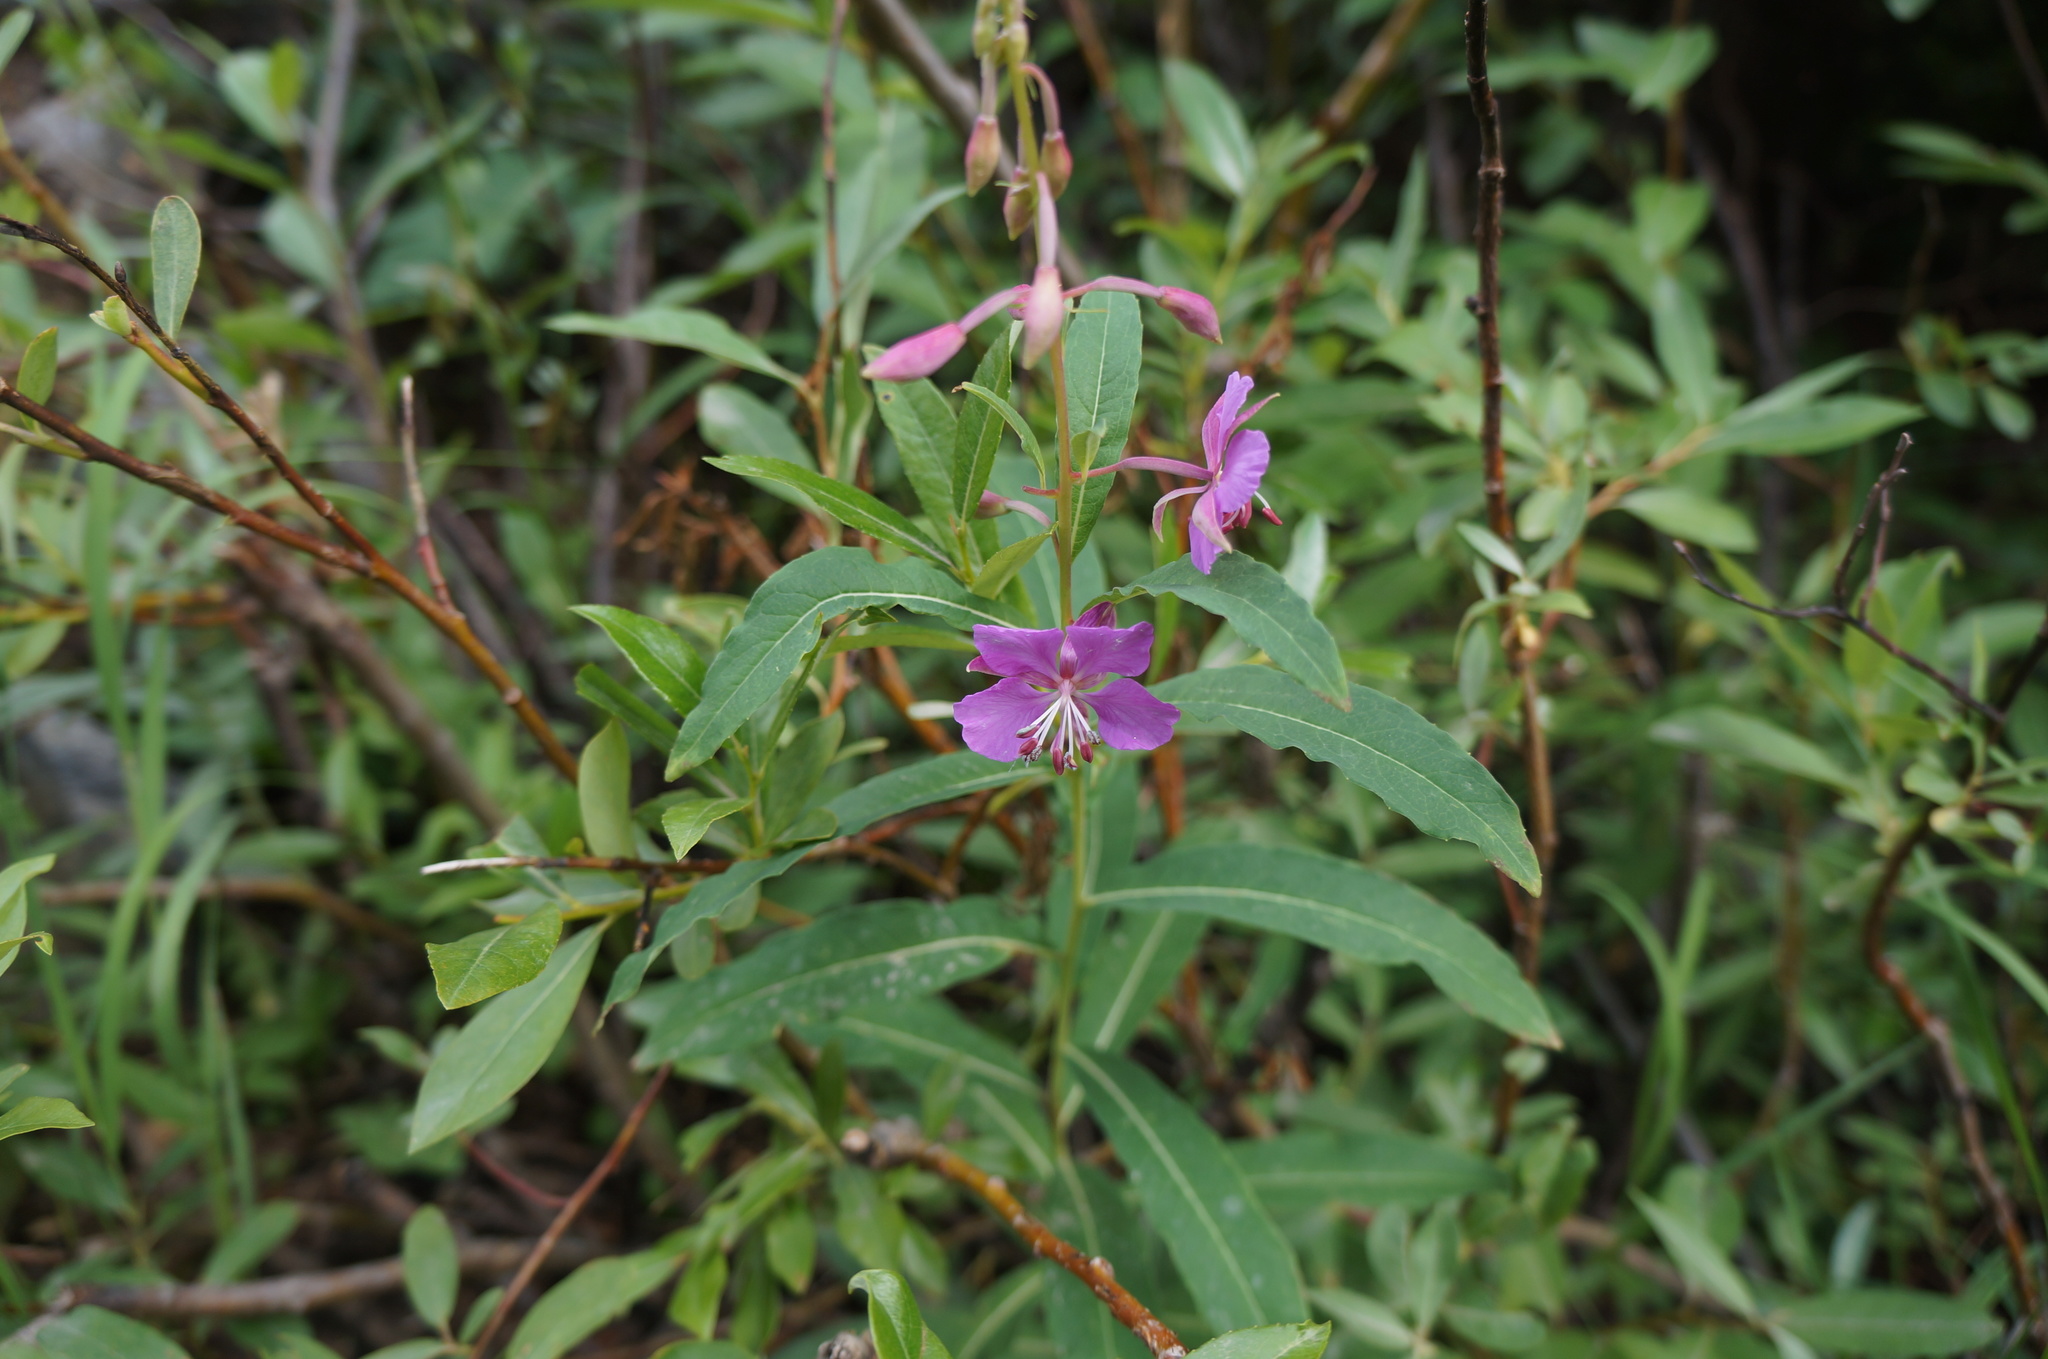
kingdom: Plantae
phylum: Tracheophyta
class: Magnoliopsida
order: Myrtales
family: Onagraceae
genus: Chamaenerion
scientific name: Chamaenerion angustifolium
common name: Fireweed
